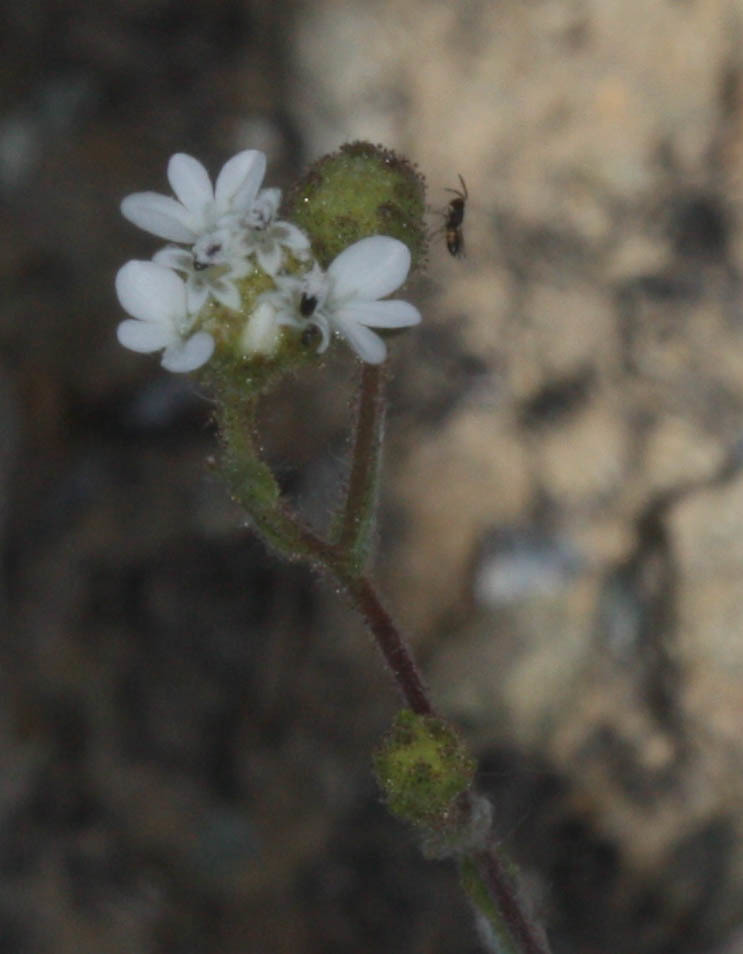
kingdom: Plantae
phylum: Tracheophyta
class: Magnoliopsida
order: Asterales
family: Asteraceae
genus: Hemizonia
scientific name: Hemizonia congesta
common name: Hayfield tarweed
